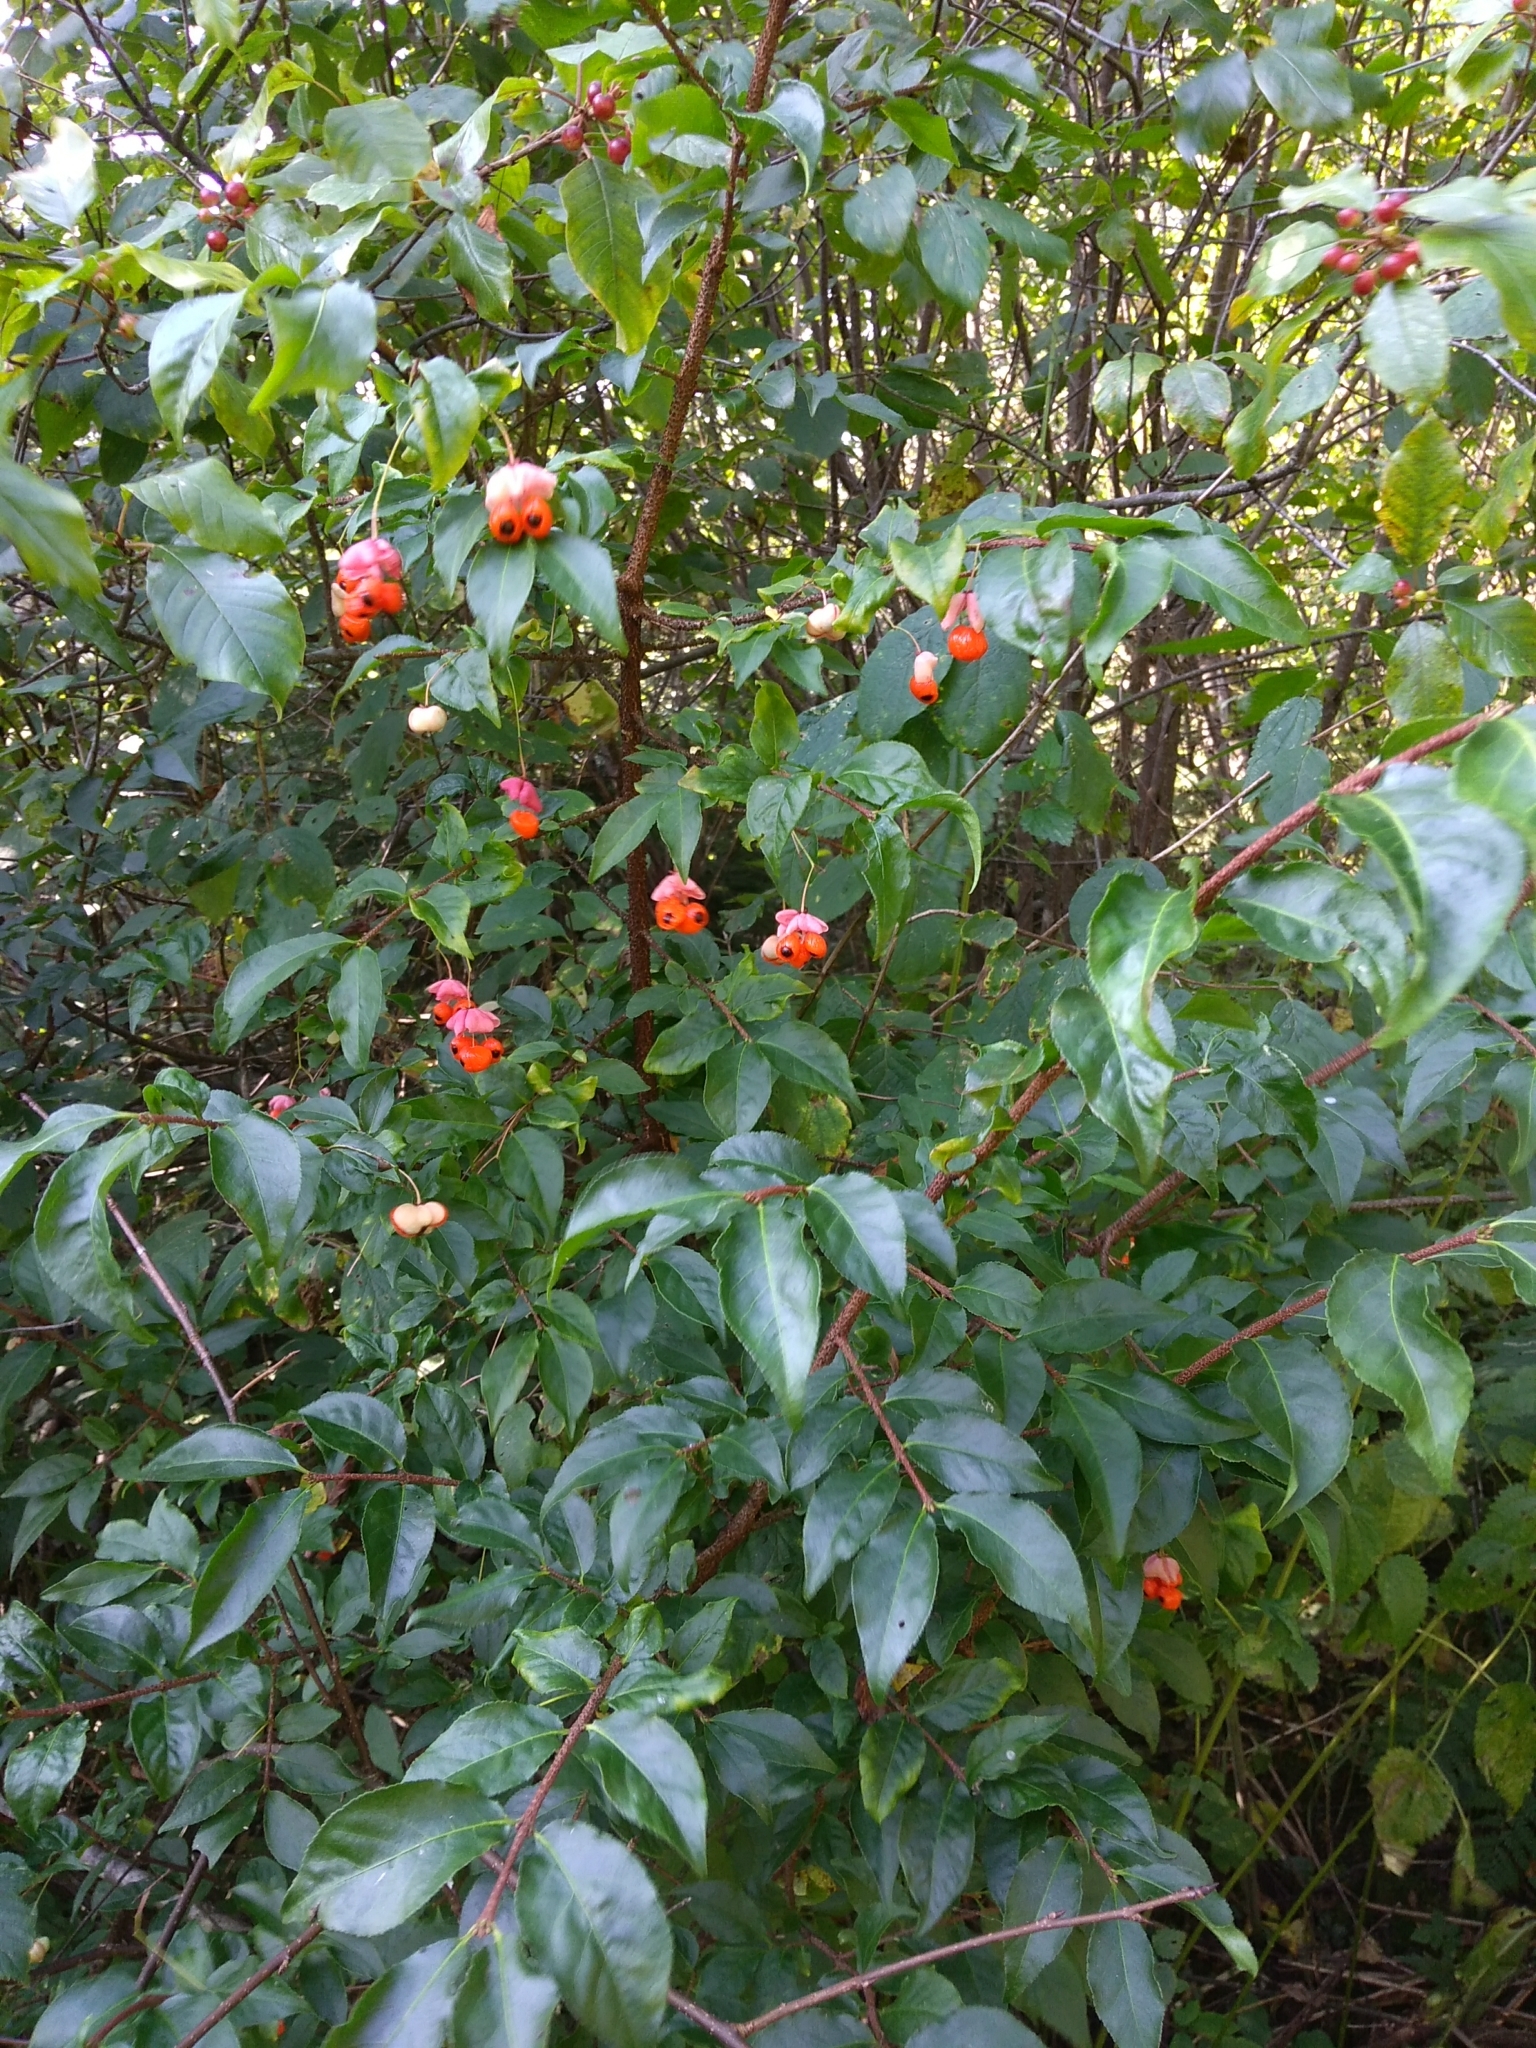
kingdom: Plantae
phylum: Tracheophyta
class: Magnoliopsida
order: Celastrales
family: Celastraceae
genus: Euonymus
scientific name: Euonymus verrucosus
